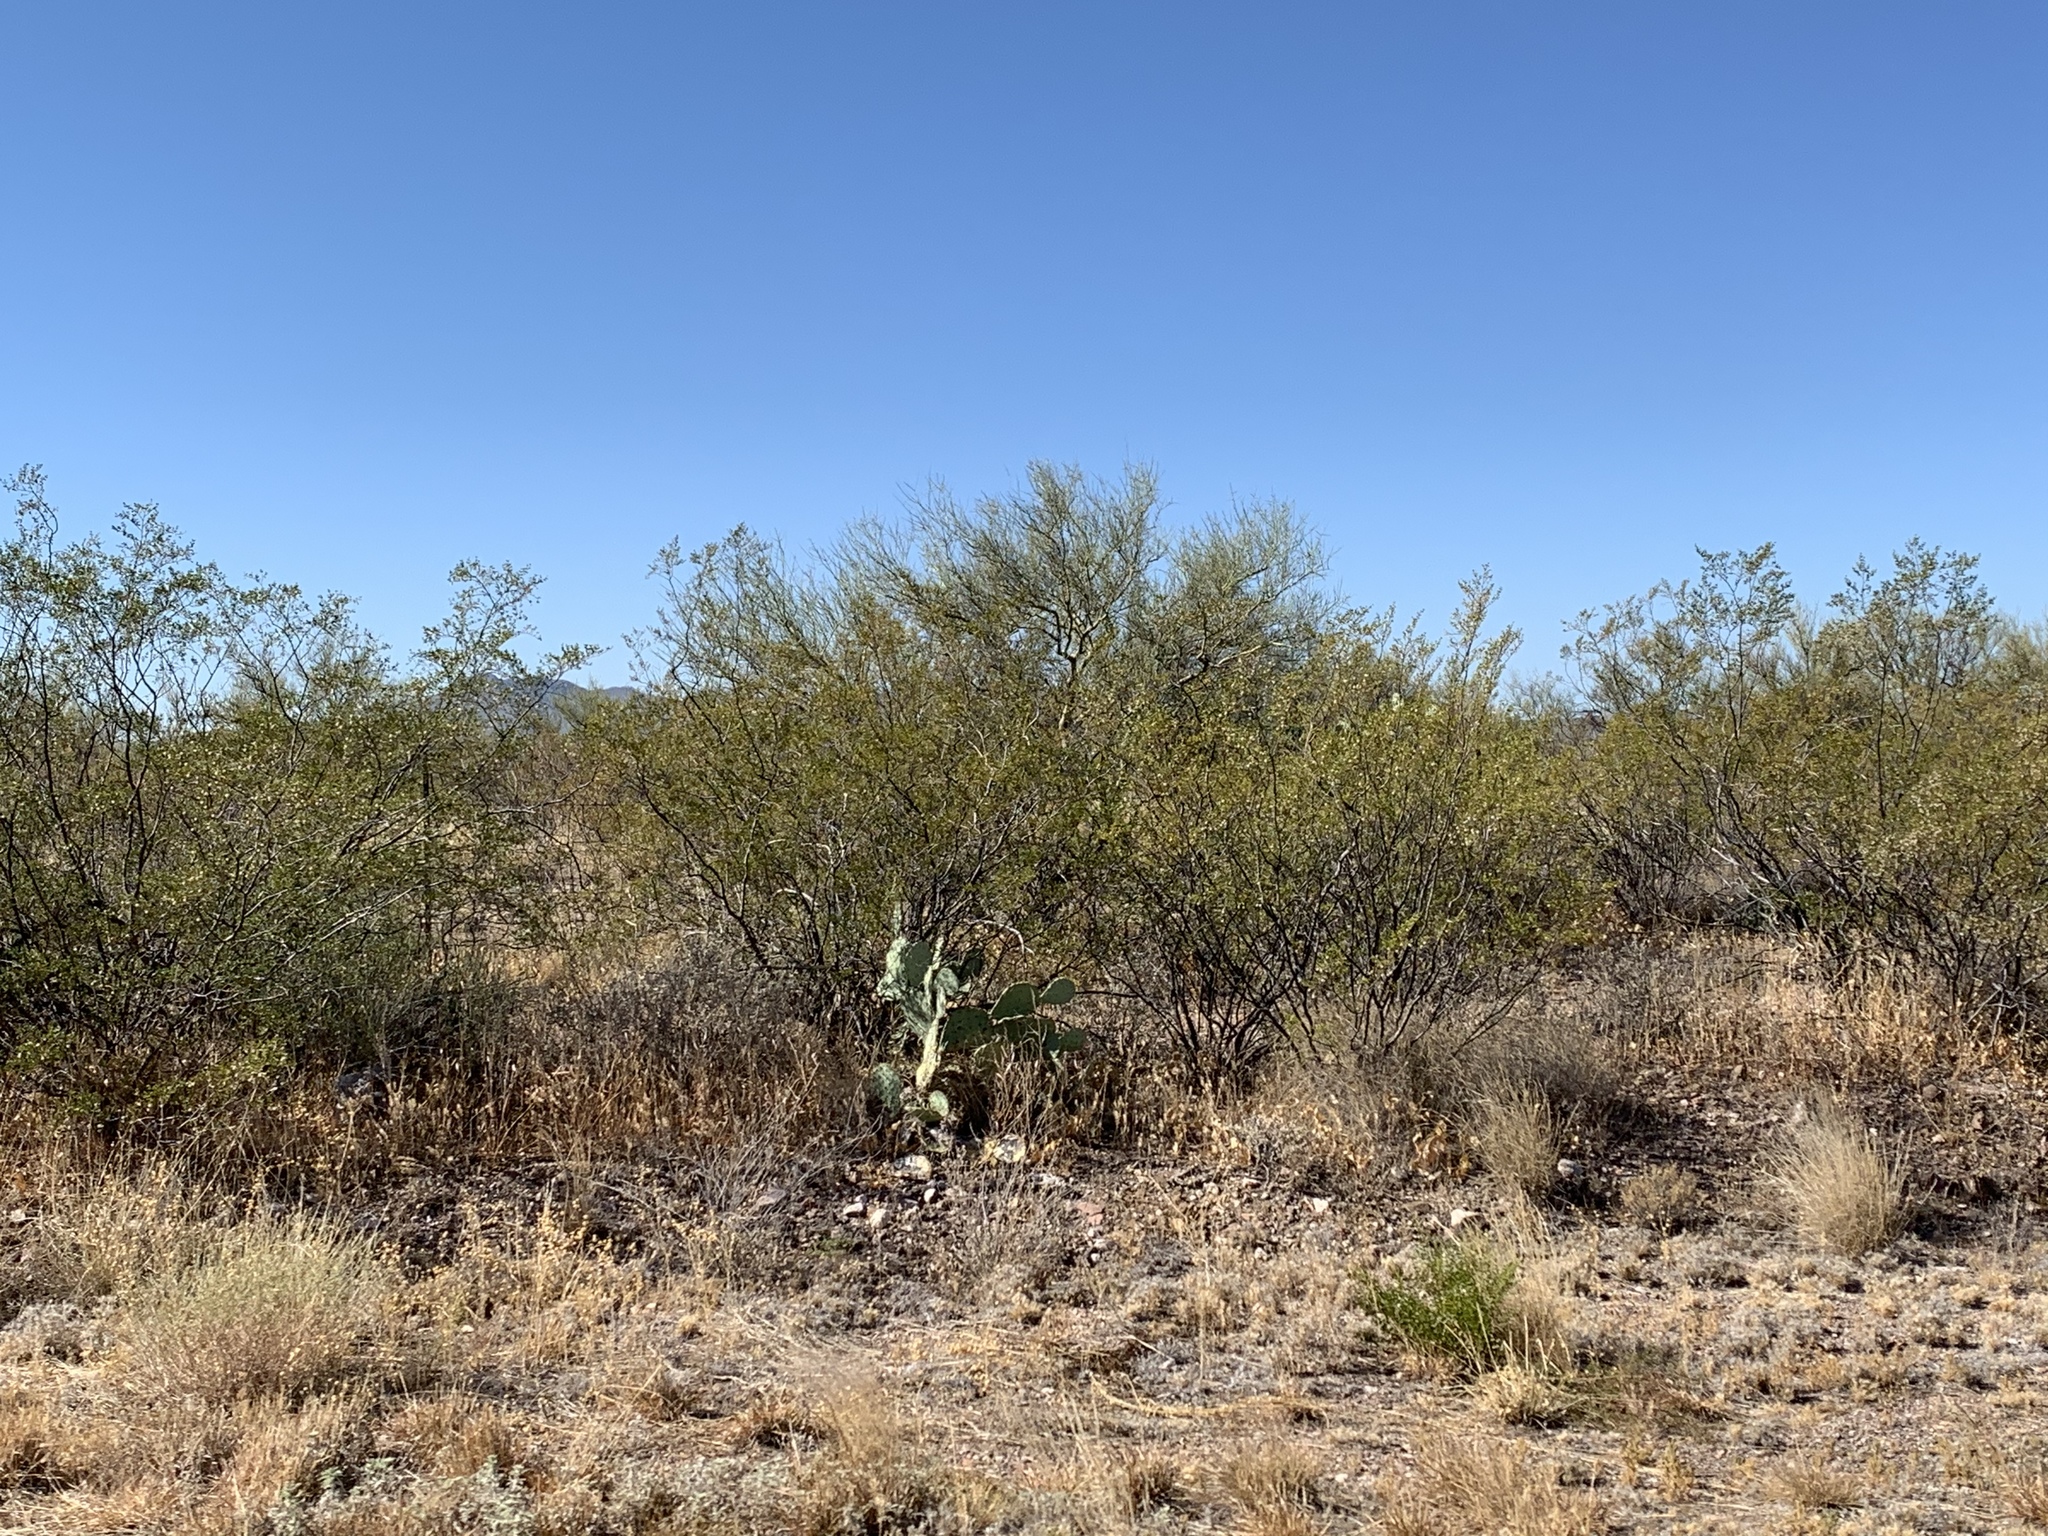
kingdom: Plantae
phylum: Tracheophyta
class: Magnoliopsida
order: Zygophyllales
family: Zygophyllaceae
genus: Larrea
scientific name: Larrea tridentata
